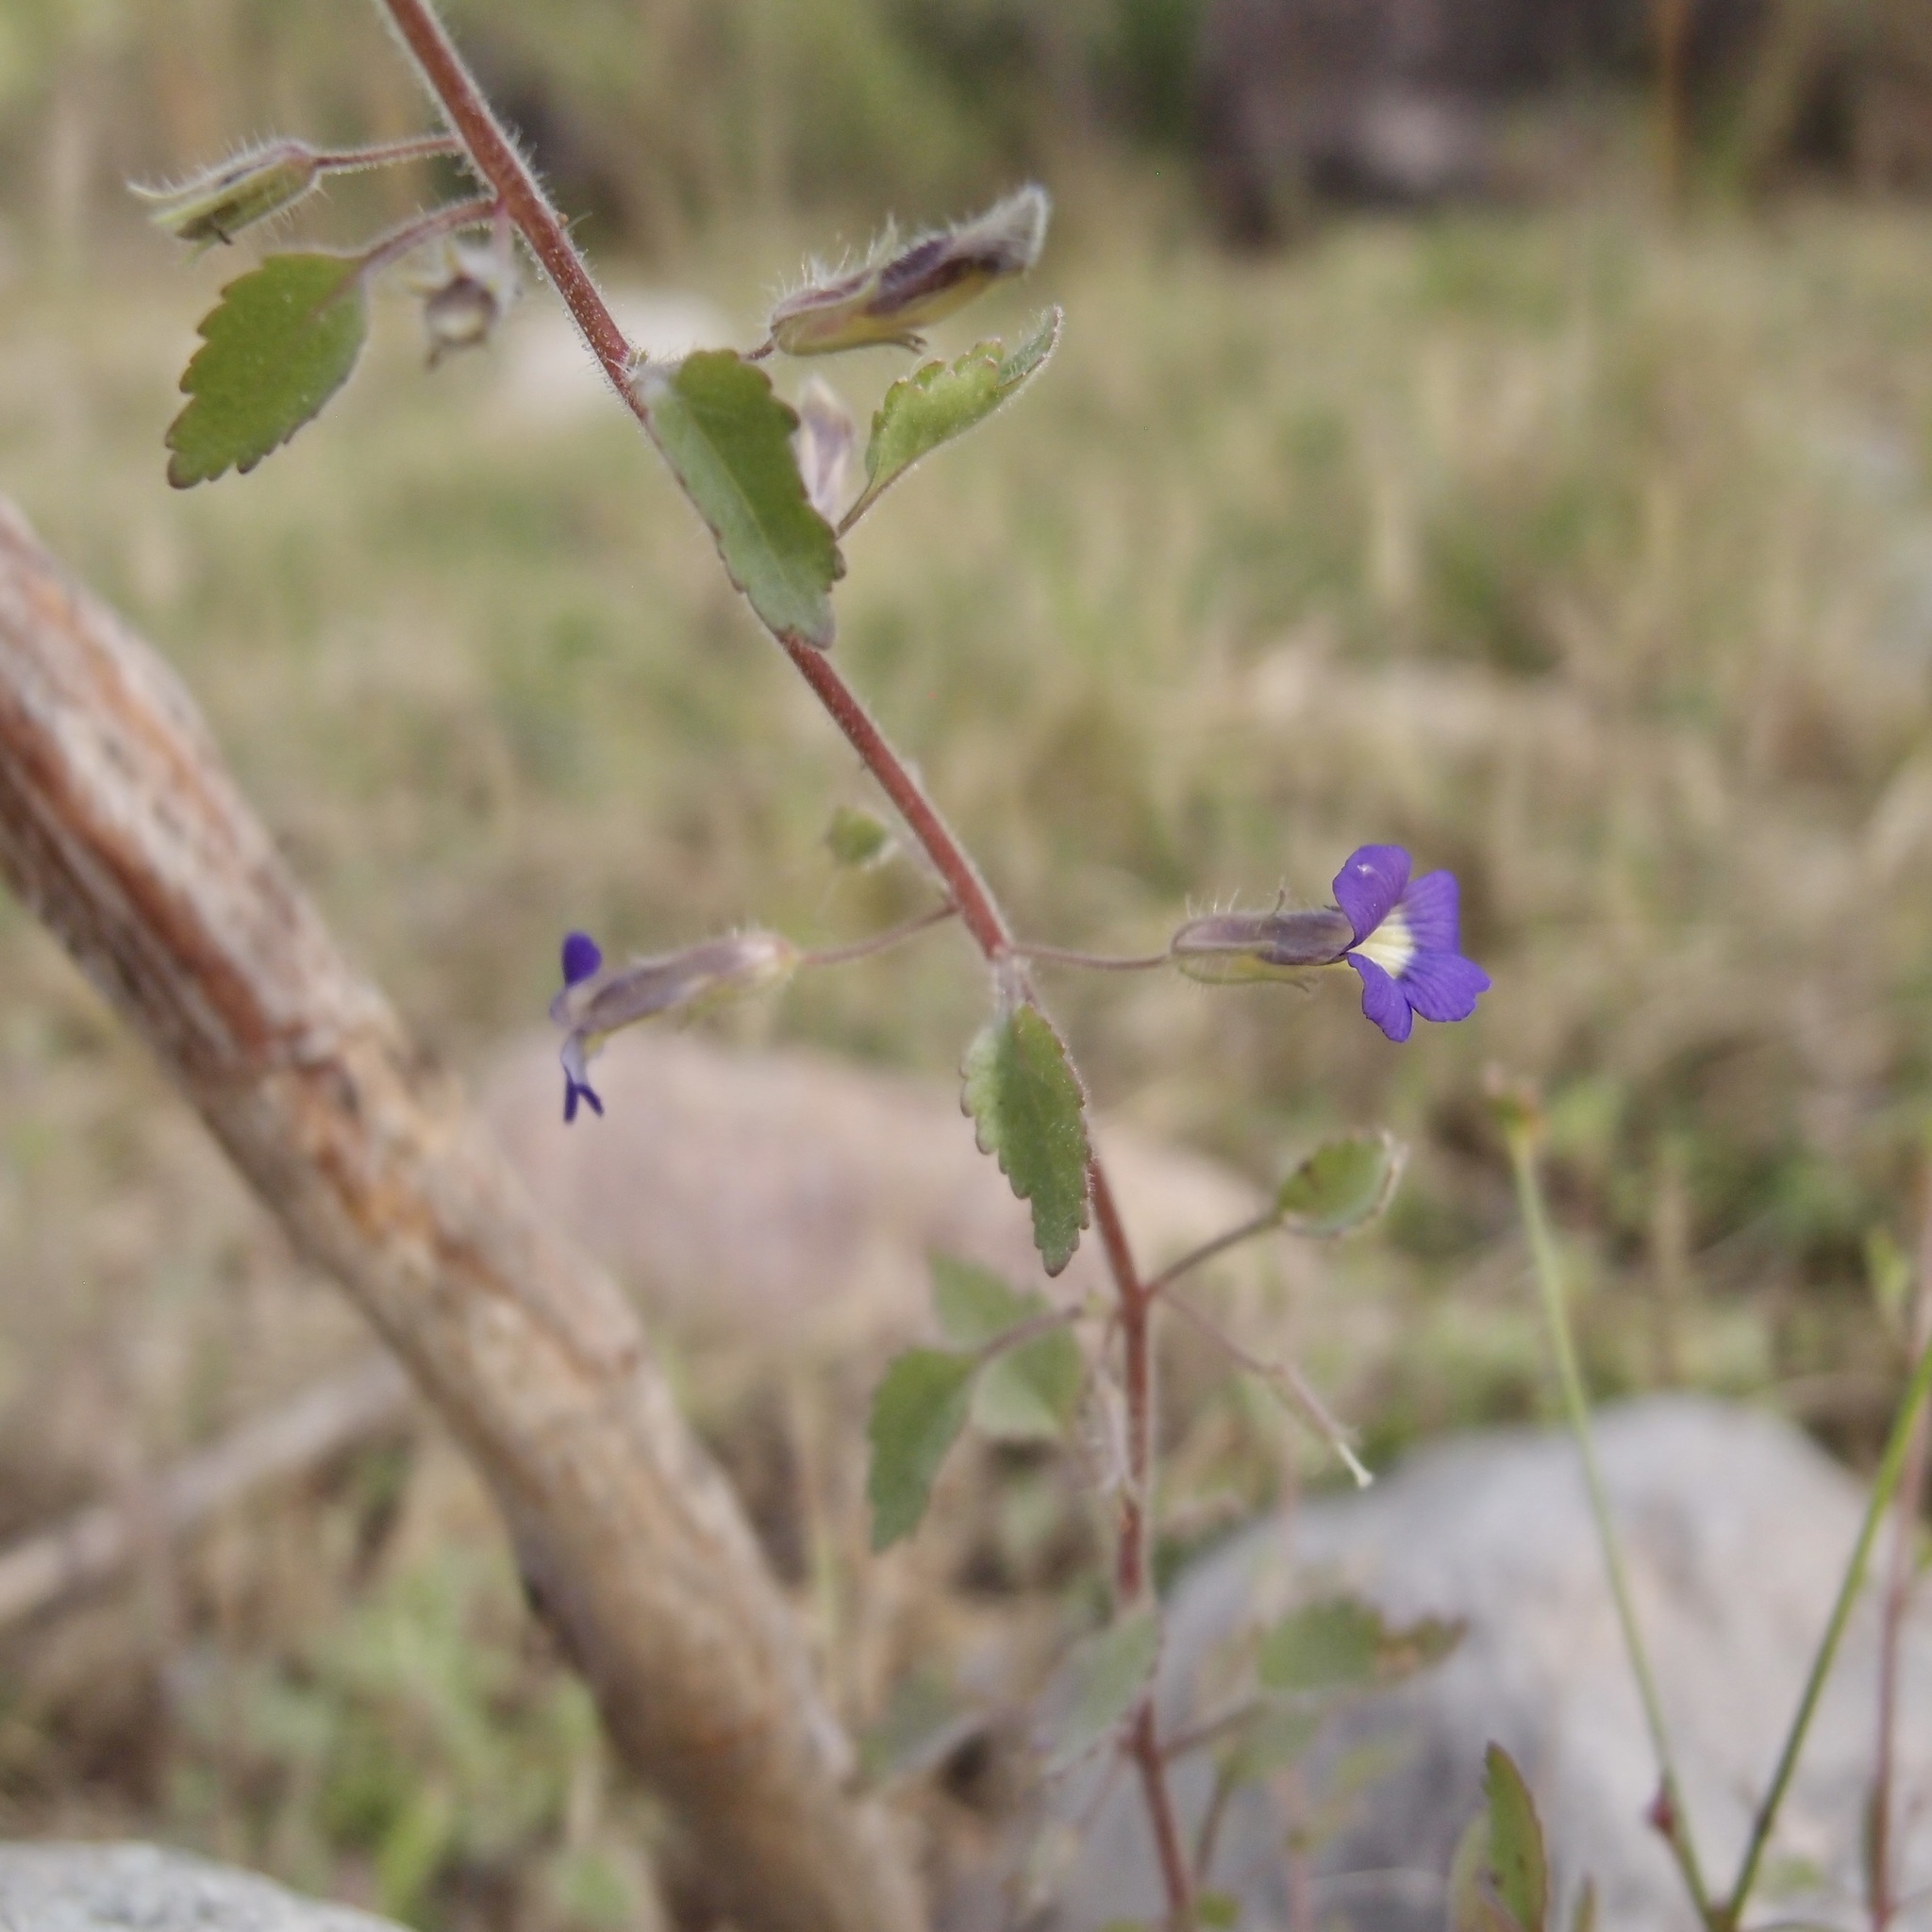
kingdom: Plantae
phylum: Tracheophyta
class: Magnoliopsida
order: Lamiales
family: Plantaginaceae
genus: Stemodia
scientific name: Stemodia palmeri
